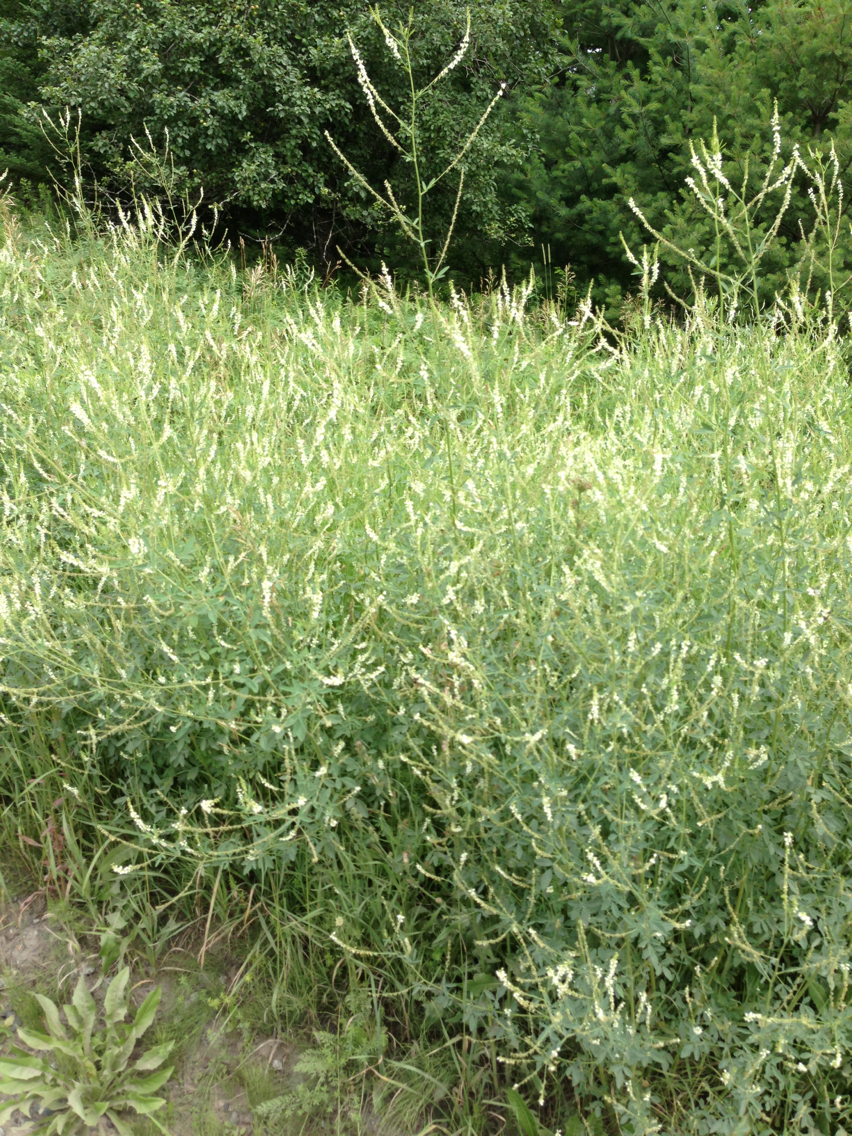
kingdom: Plantae
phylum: Tracheophyta
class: Magnoliopsida
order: Fabales
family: Fabaceae
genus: Melilotus
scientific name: Melilotus albus
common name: White melilot
